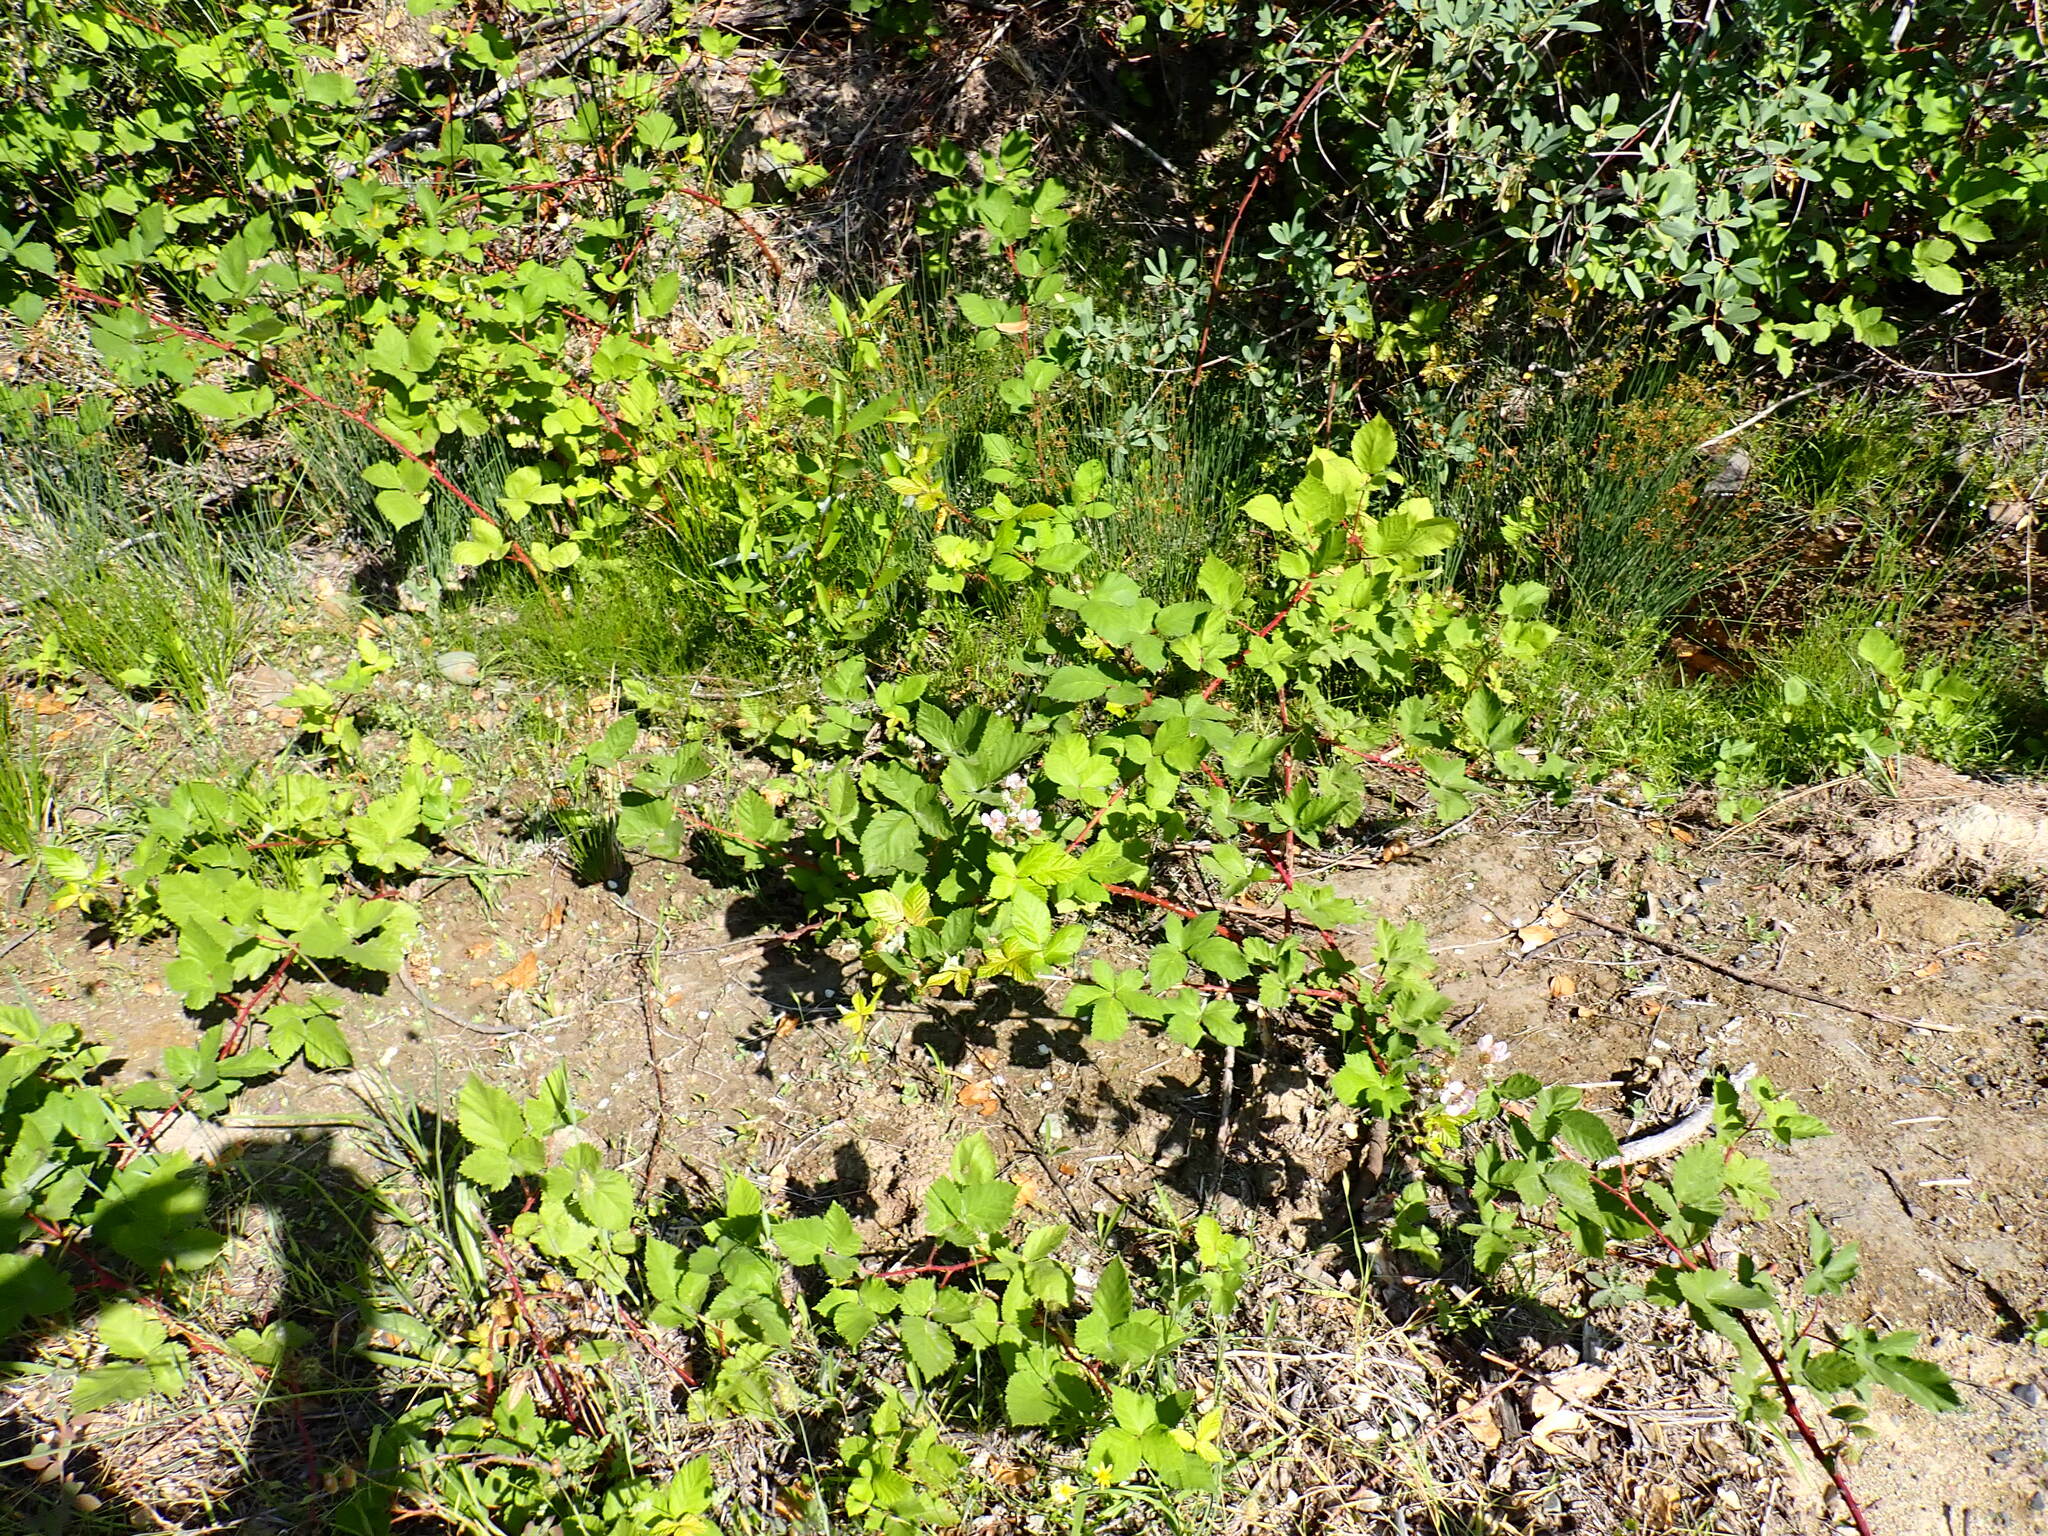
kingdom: Plantae
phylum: Tracheophyta
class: Magnoliopsida
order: Rosales
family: Rosaceae
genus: Rubus
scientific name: Rubus armeniacus
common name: Himalayan blackberry
